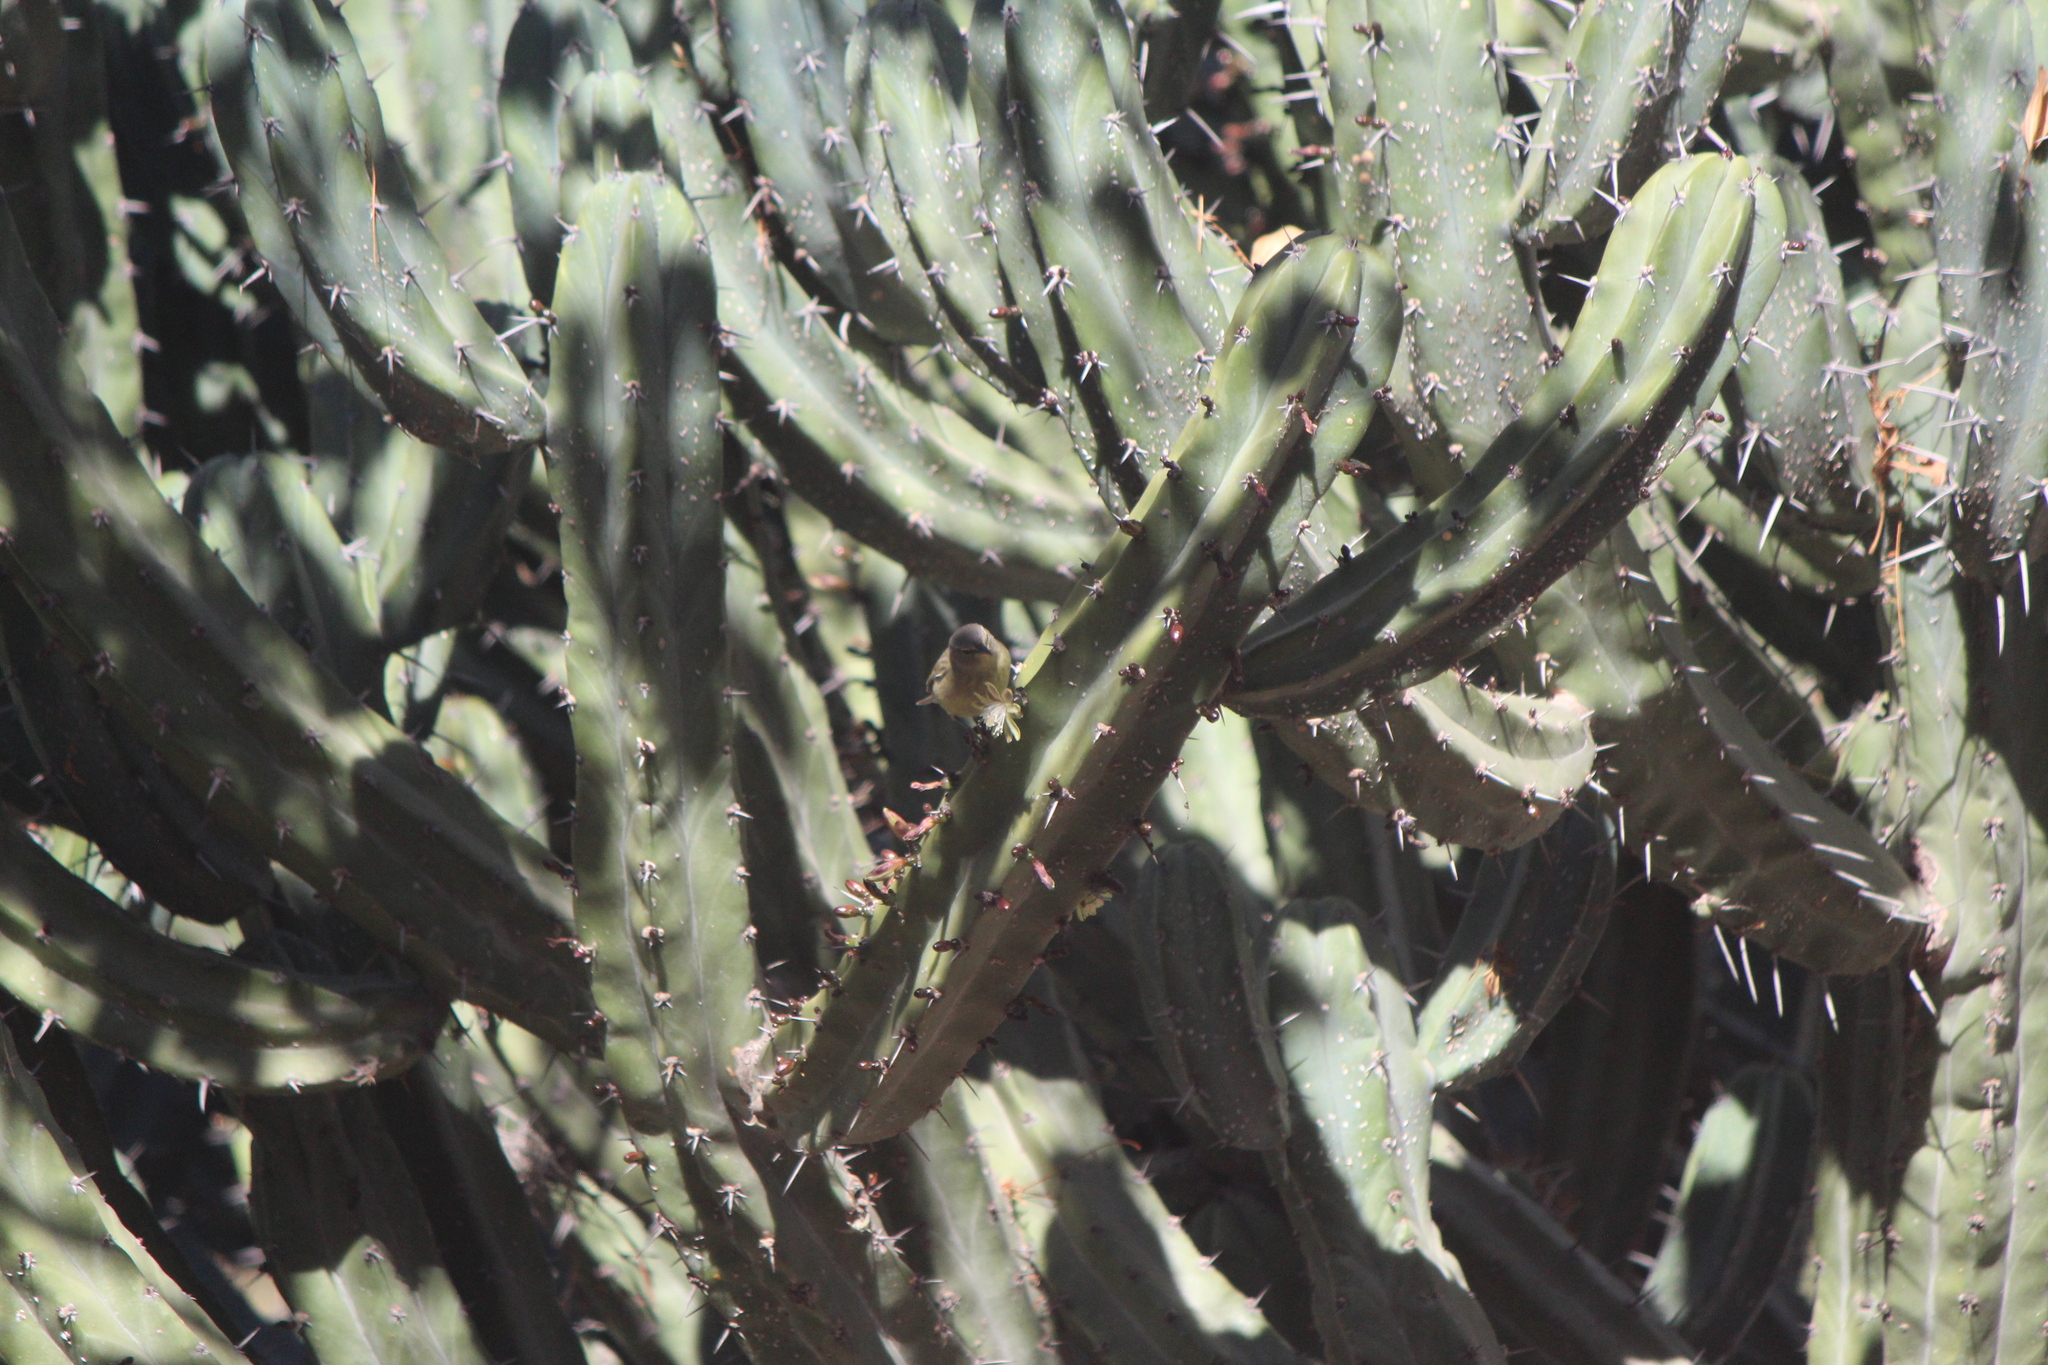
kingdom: Animalia
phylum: Chordata
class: Aves
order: Passeriformes
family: Parulidae
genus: Leiothlypis
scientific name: Leiothlypis celata
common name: Orange-crowned warbler
